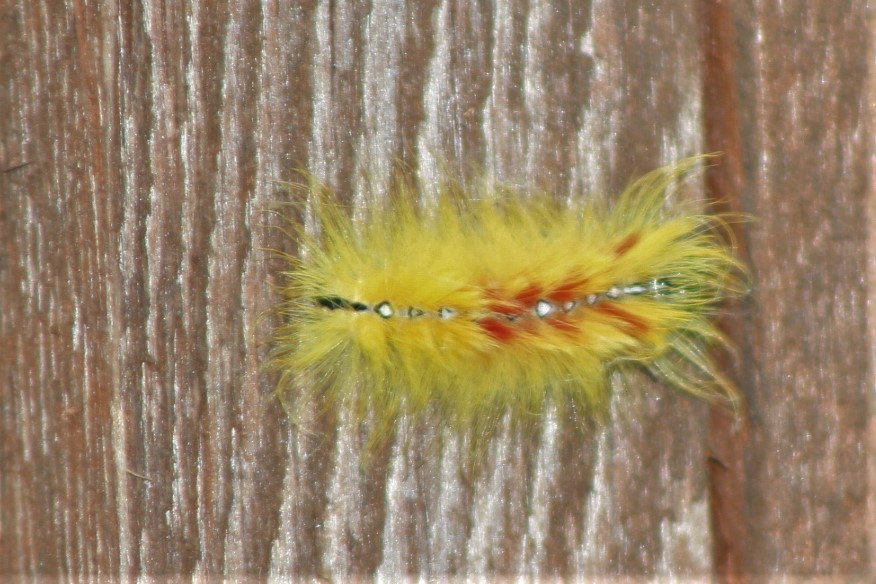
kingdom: Animalia
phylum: Arthropoda
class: Insecta
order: Lepidoptera
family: Noctuidae
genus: Acronicta
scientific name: Acronicta aceris
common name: Sycamore
